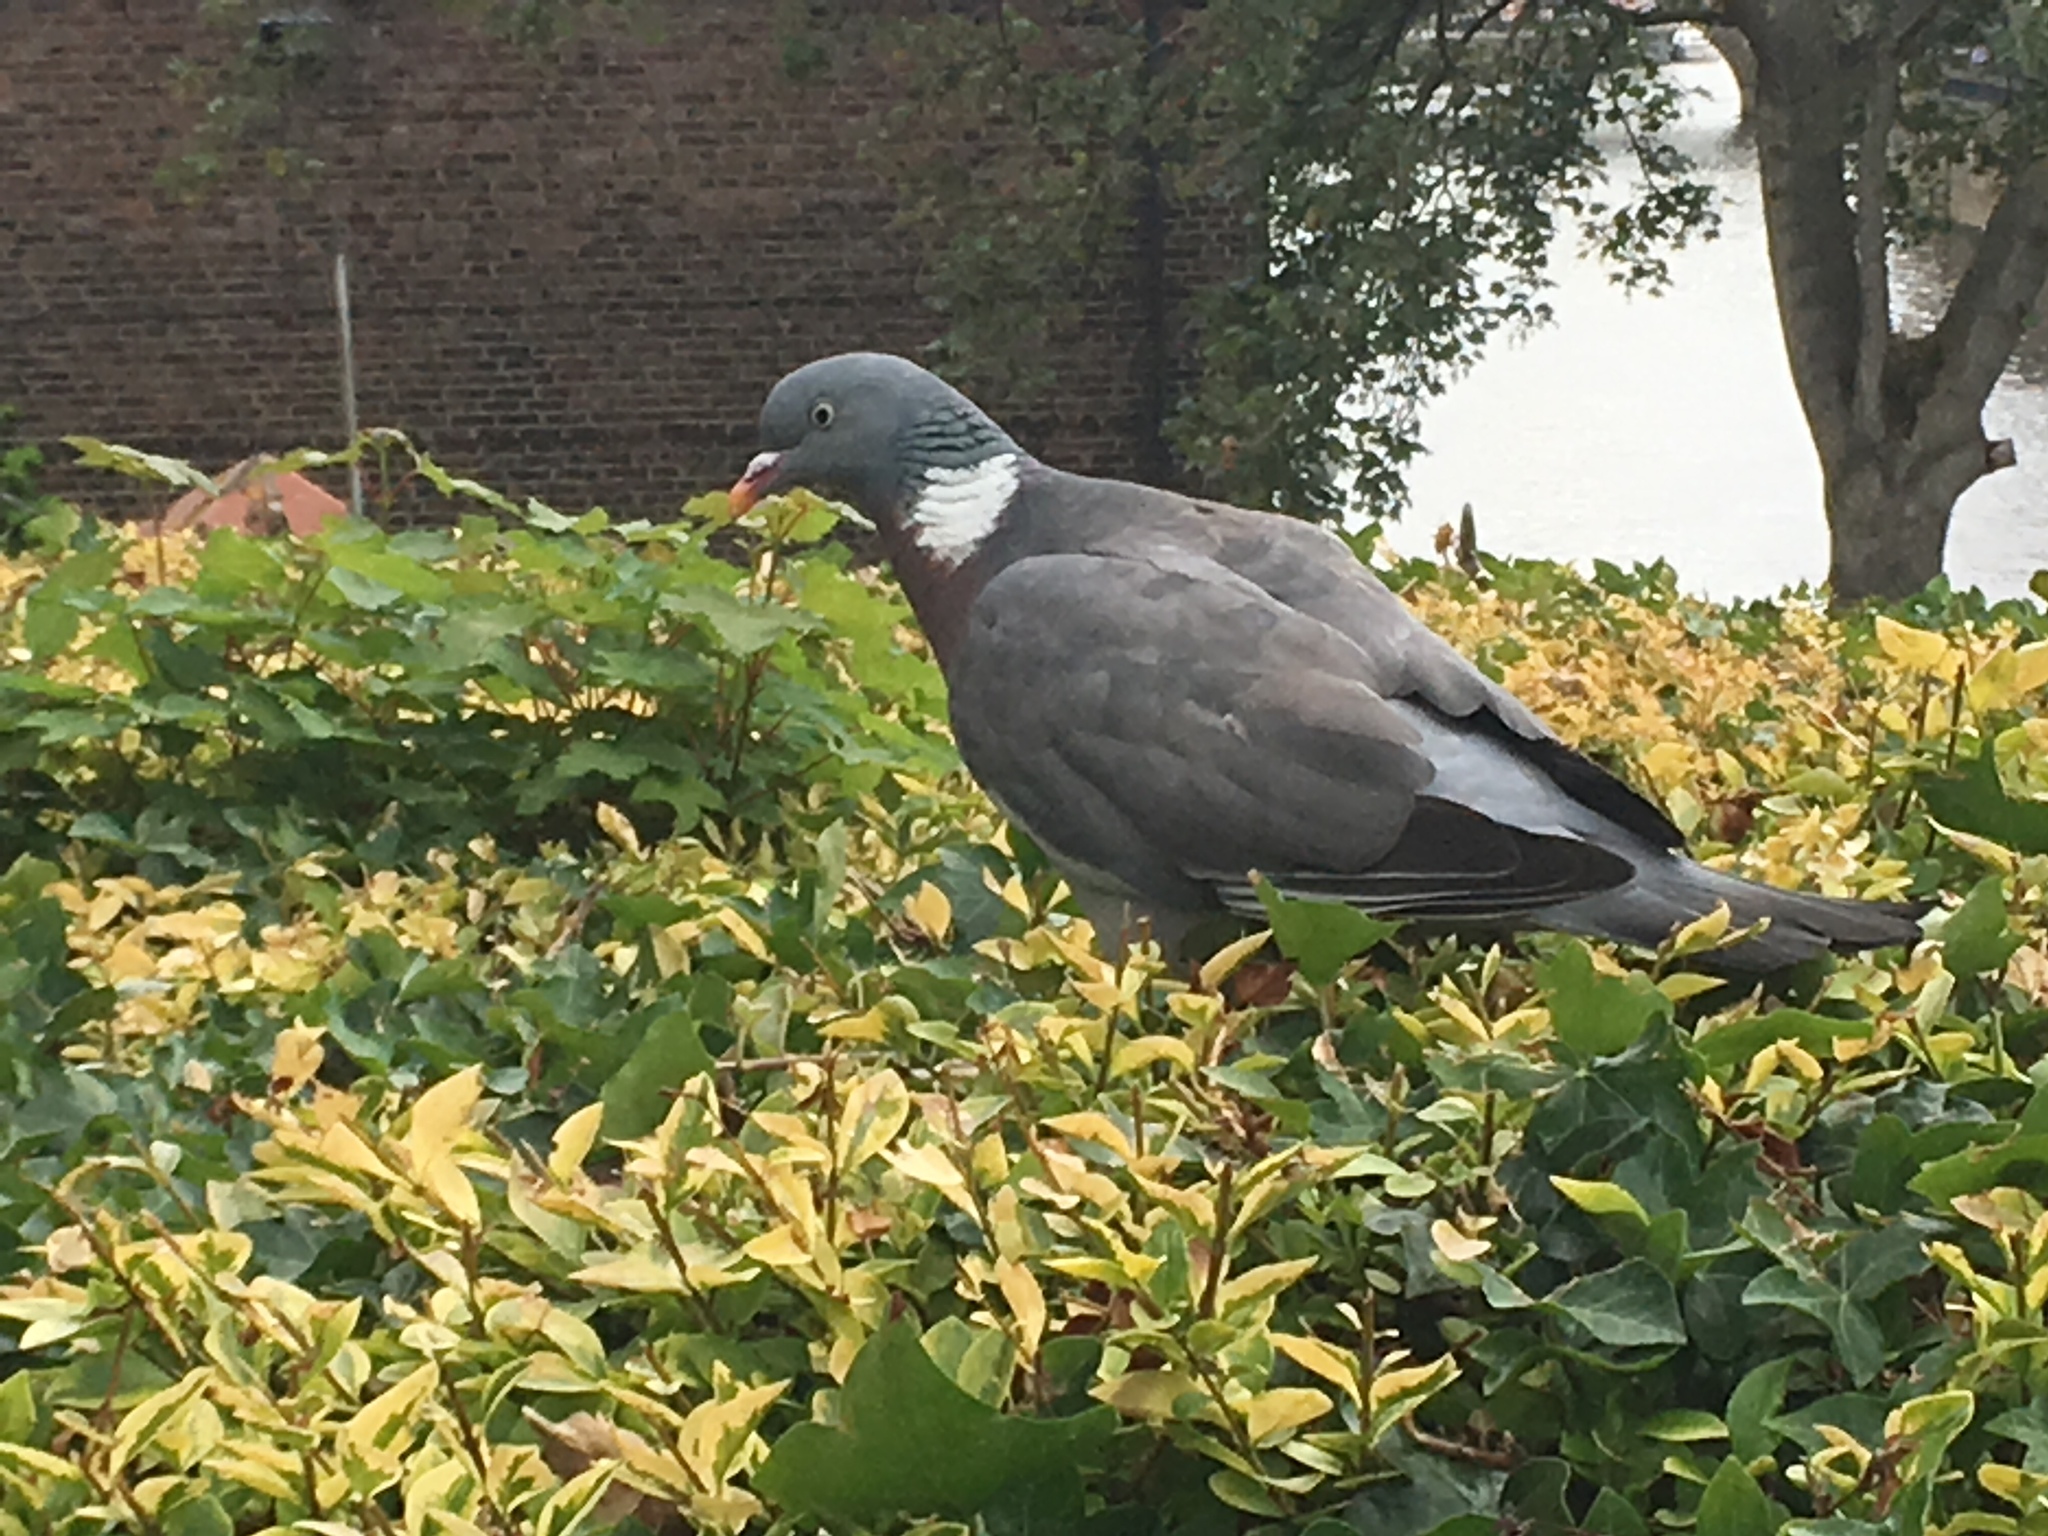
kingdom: Animalia
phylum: Chordata
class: Aves
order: Columbiformes
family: Columbidae
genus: Columba
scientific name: Columba palumbus
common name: Common wood pigeon
